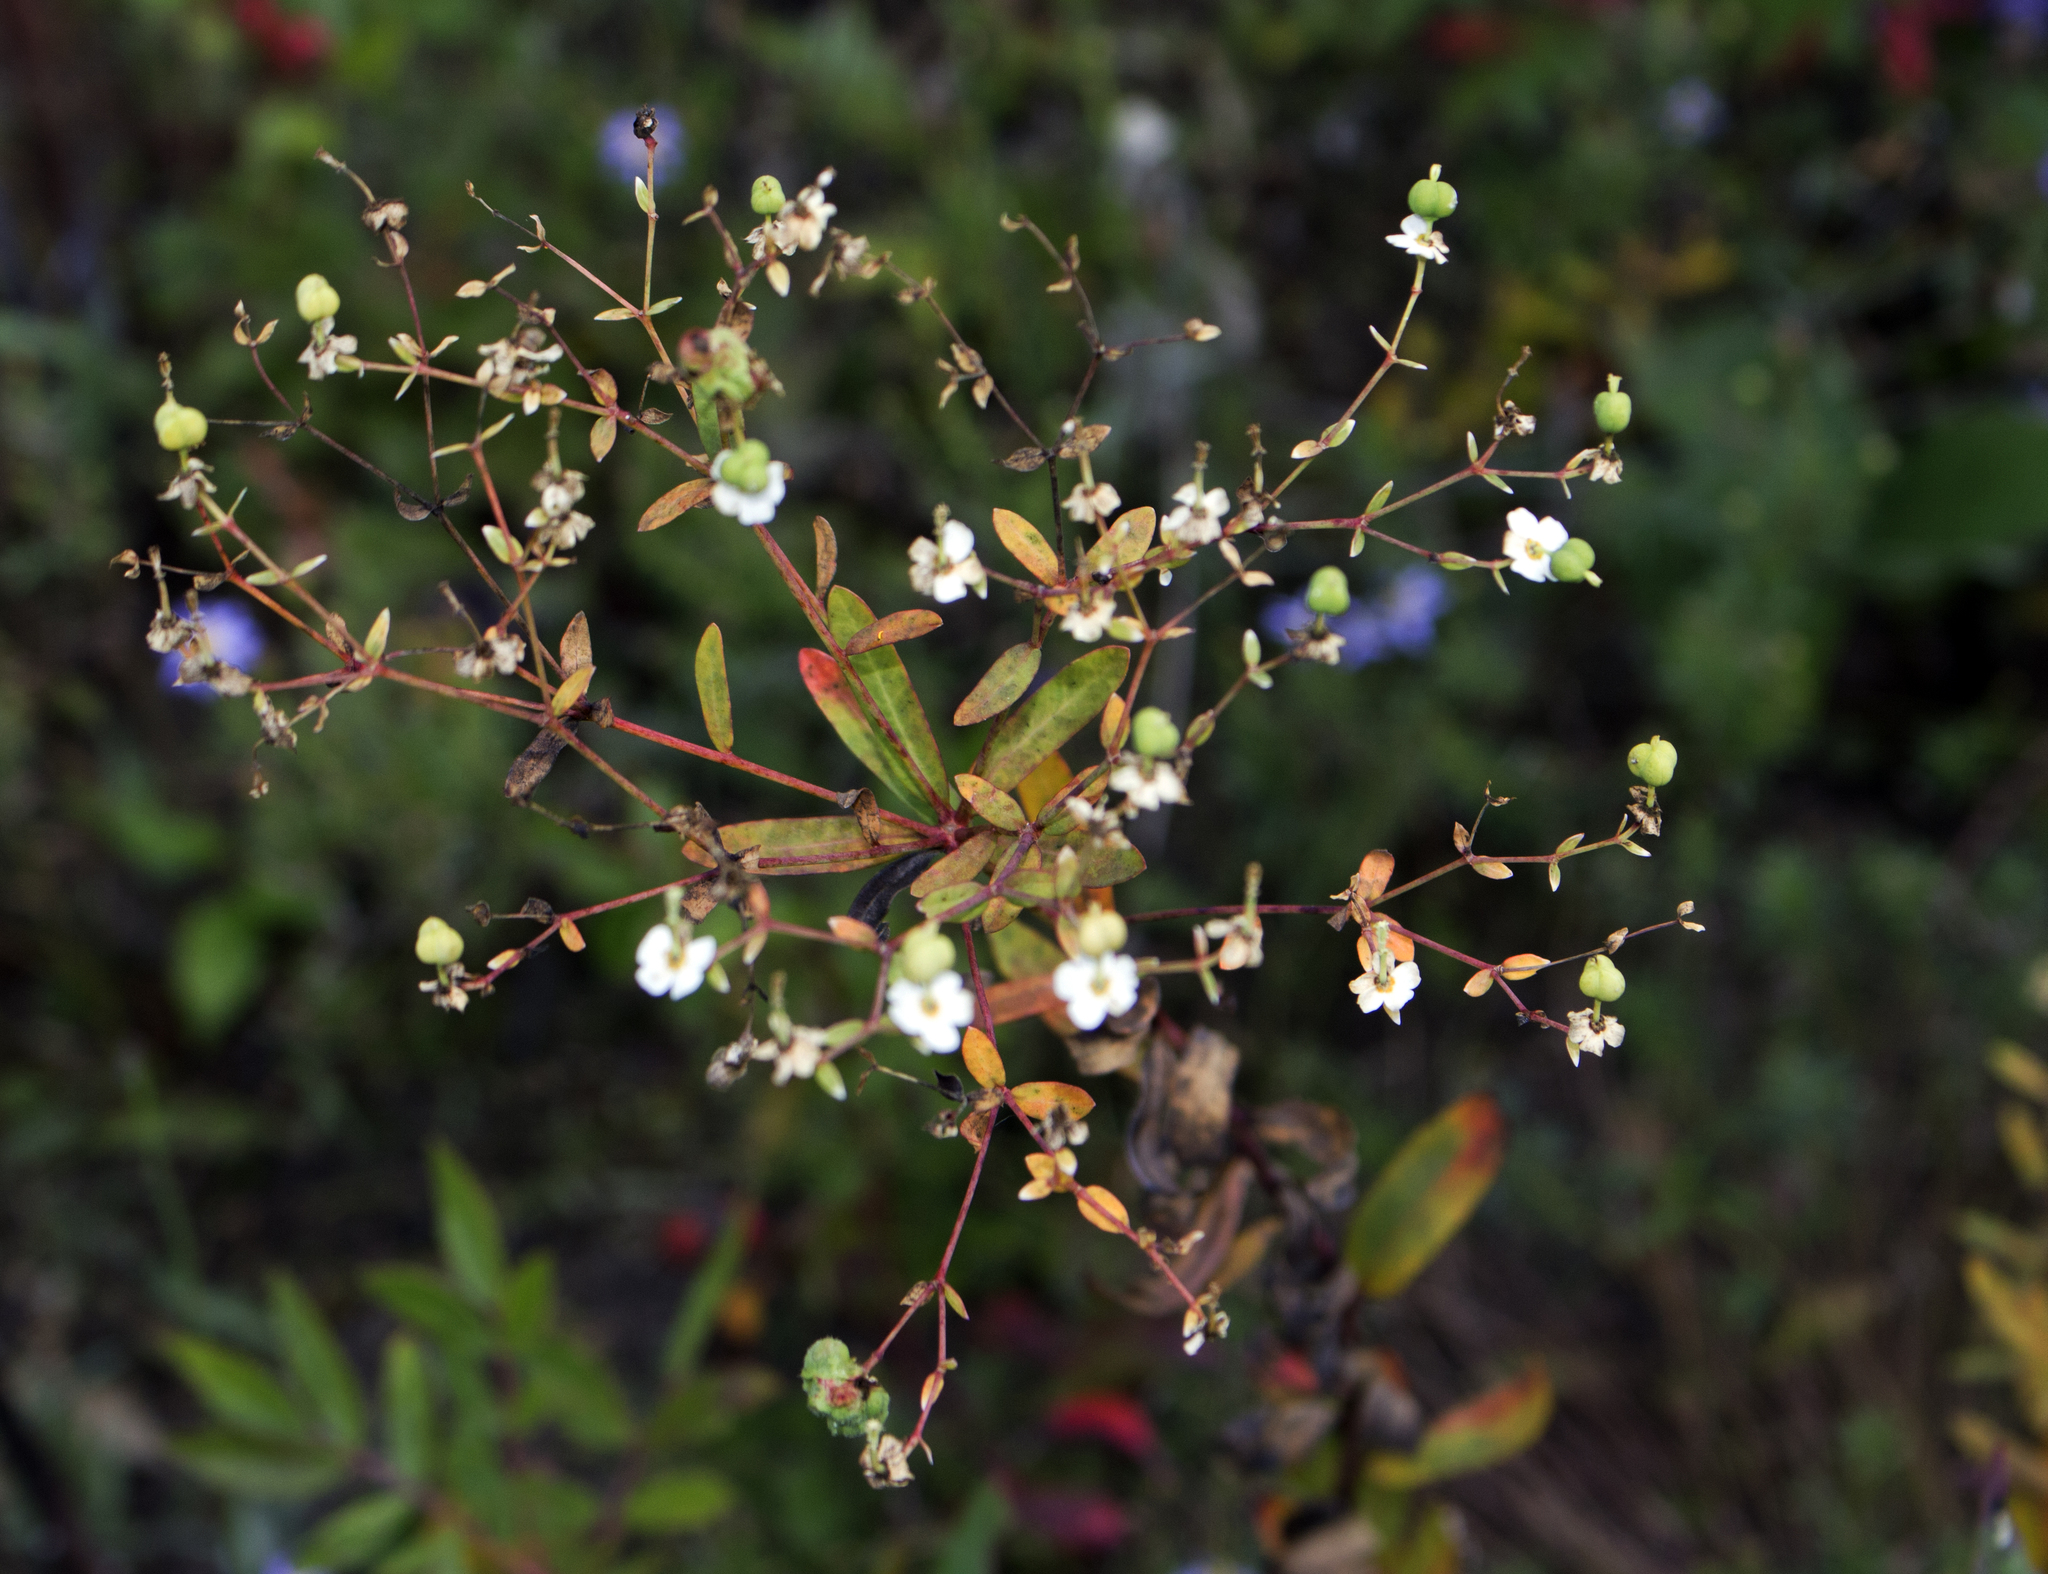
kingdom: Plantae
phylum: Tracheophyta
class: Magnoliopsida
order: Malpighiales
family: Euphorbiaceae
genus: Euphorbia
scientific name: Euphorbia corollata
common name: Flowering spurge
